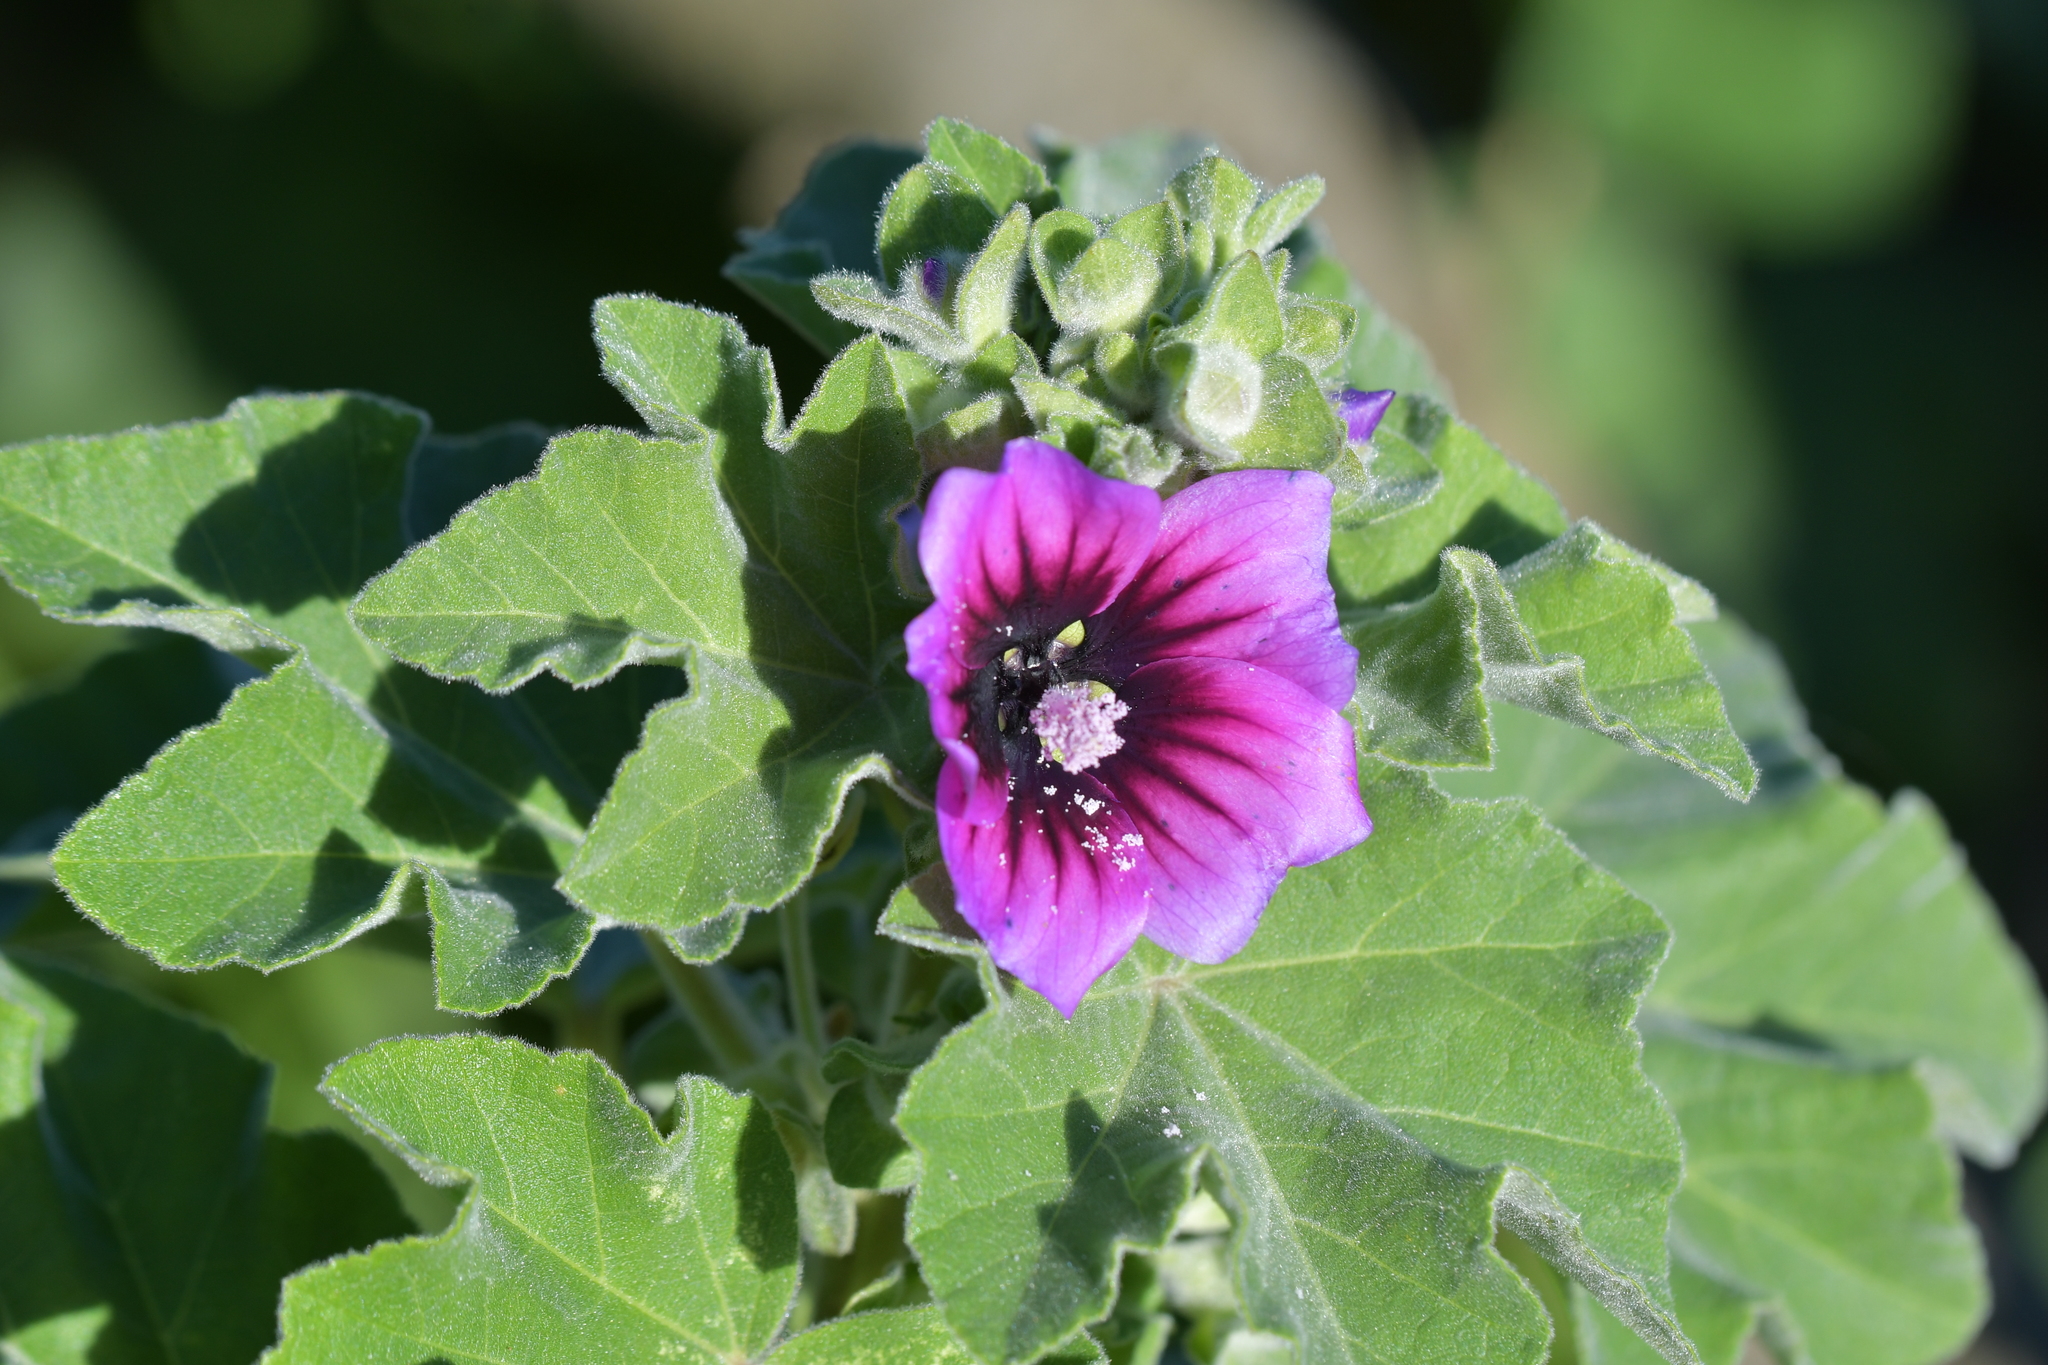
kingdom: Plantae
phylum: Tracheophyta
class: Magnoliopsida
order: Malvales
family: Malvaceae
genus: Malva
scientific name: Malva arborea
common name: Tree mallow
